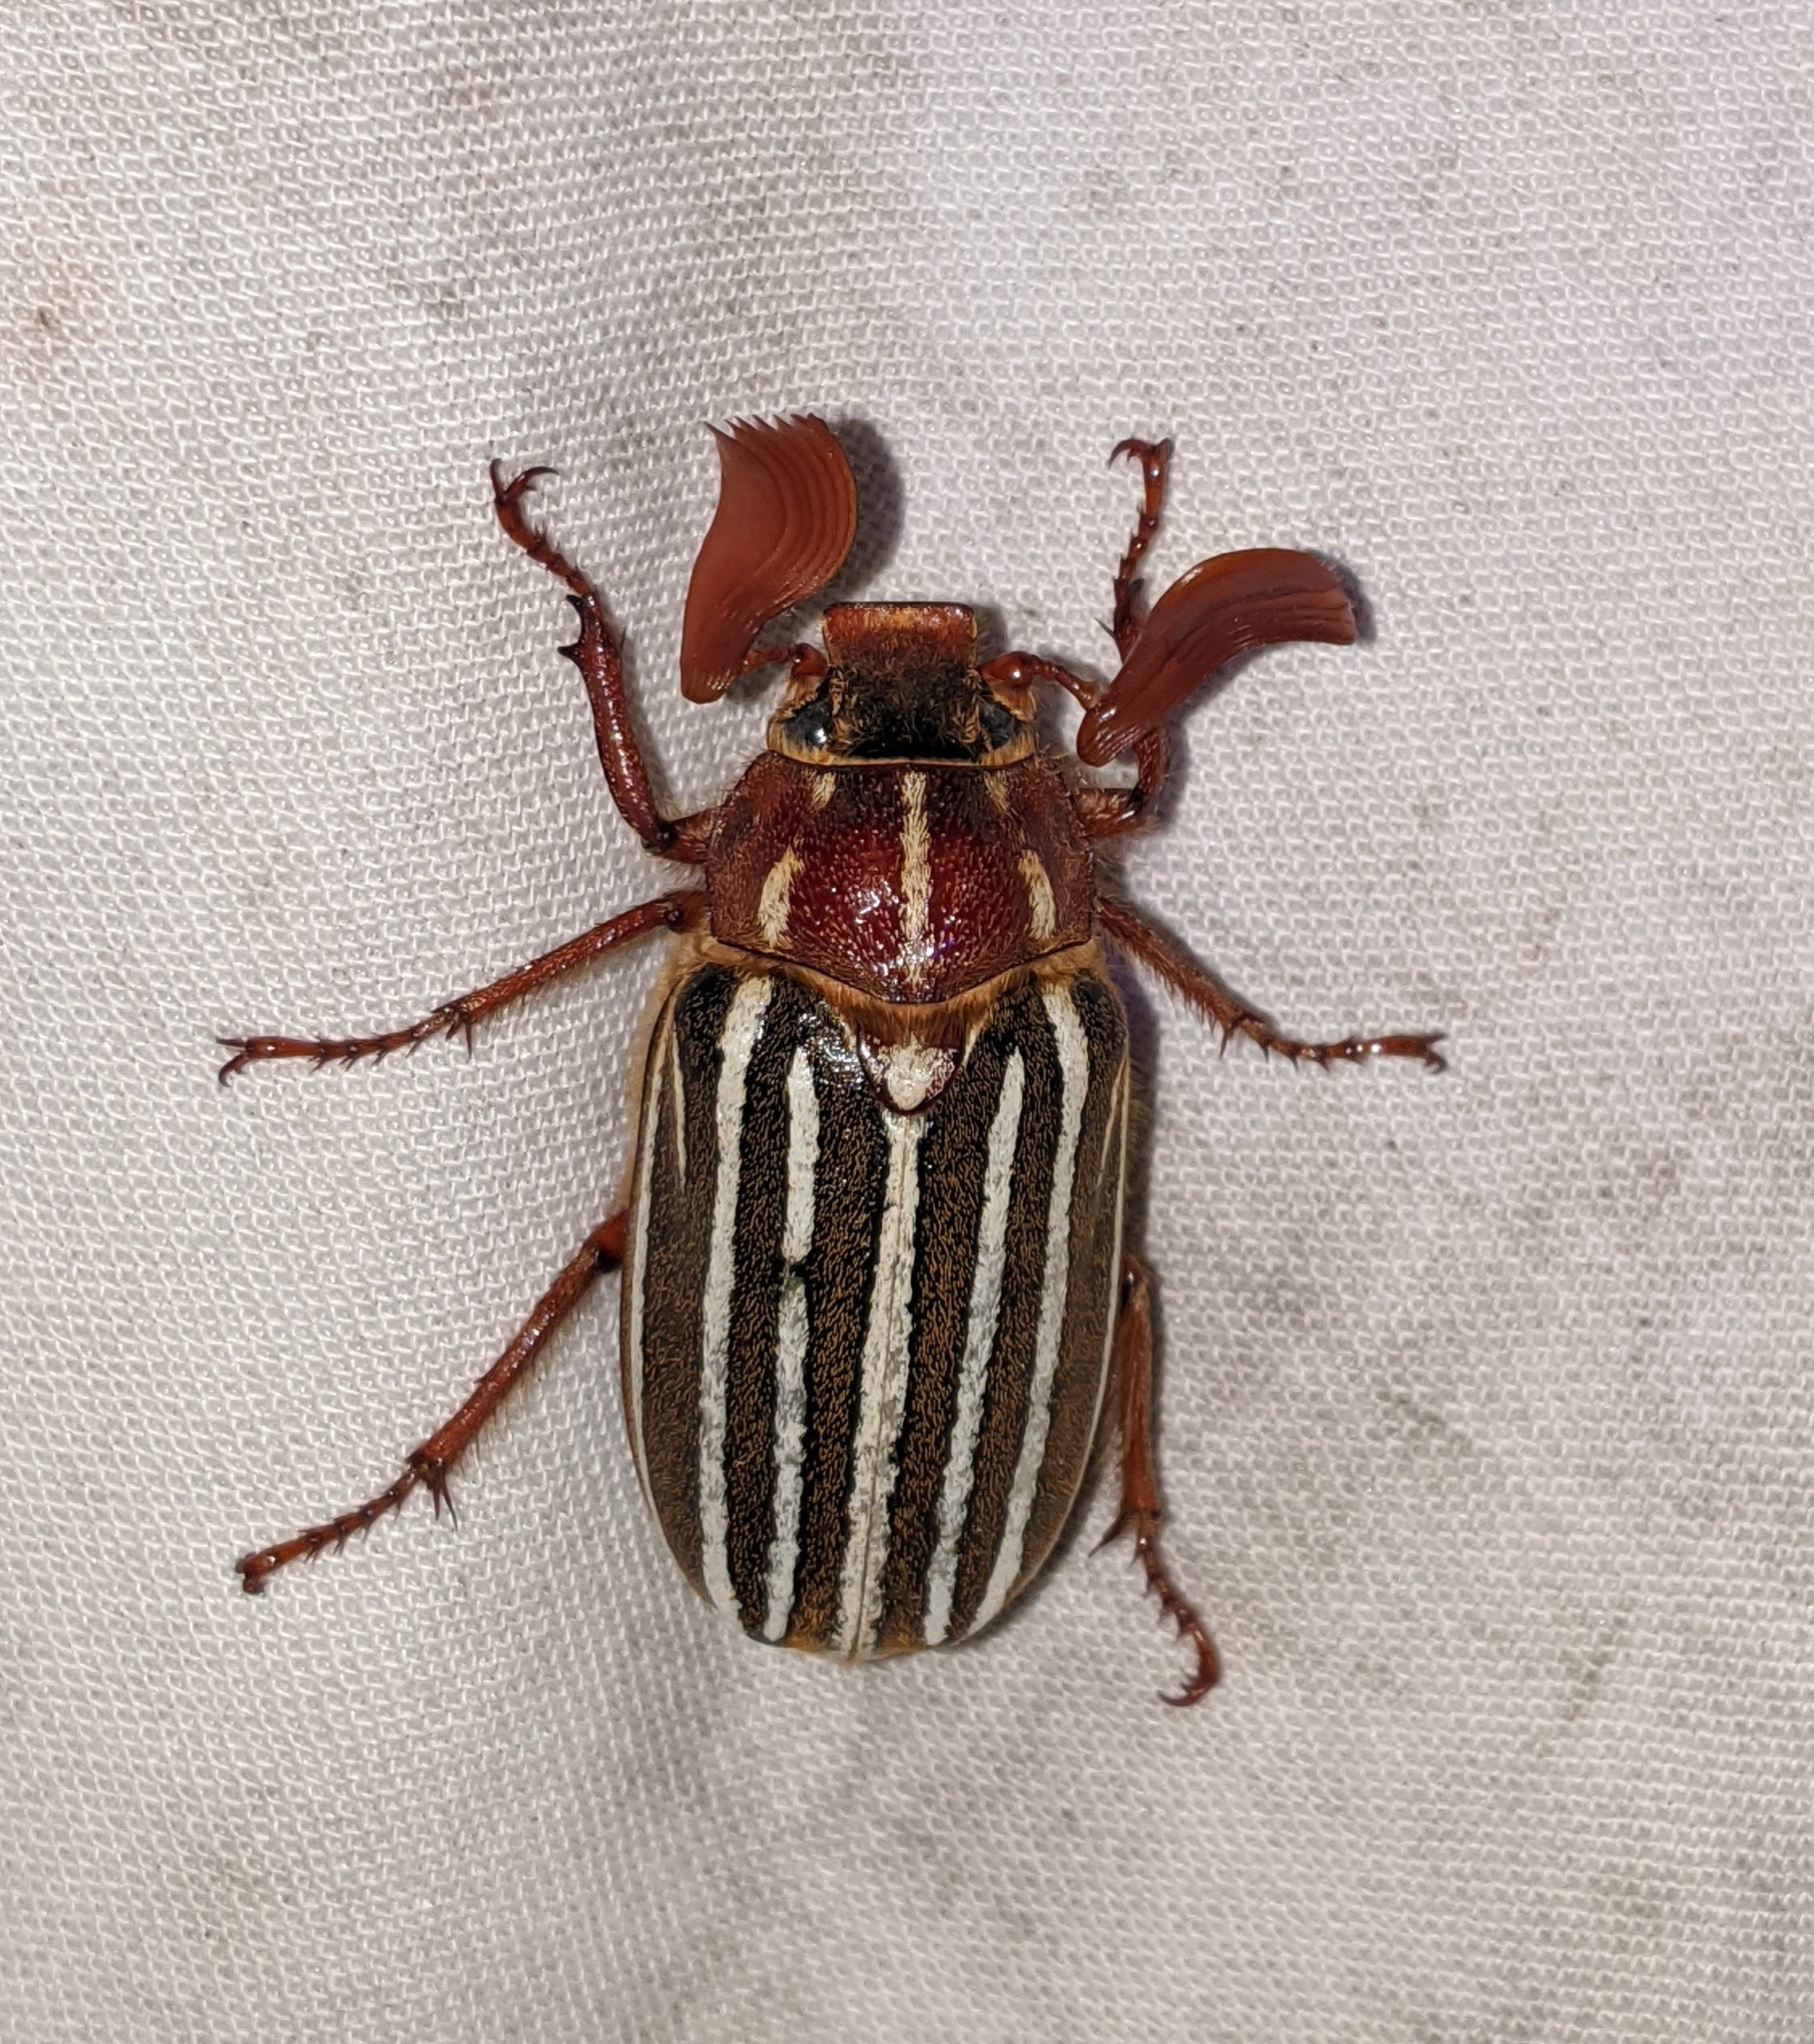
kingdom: Animalia
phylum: Arthropoda
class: Insecta
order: Coleoptera
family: Scarabaeidae
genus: Polyphylla
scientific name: Polyphylla crinita
